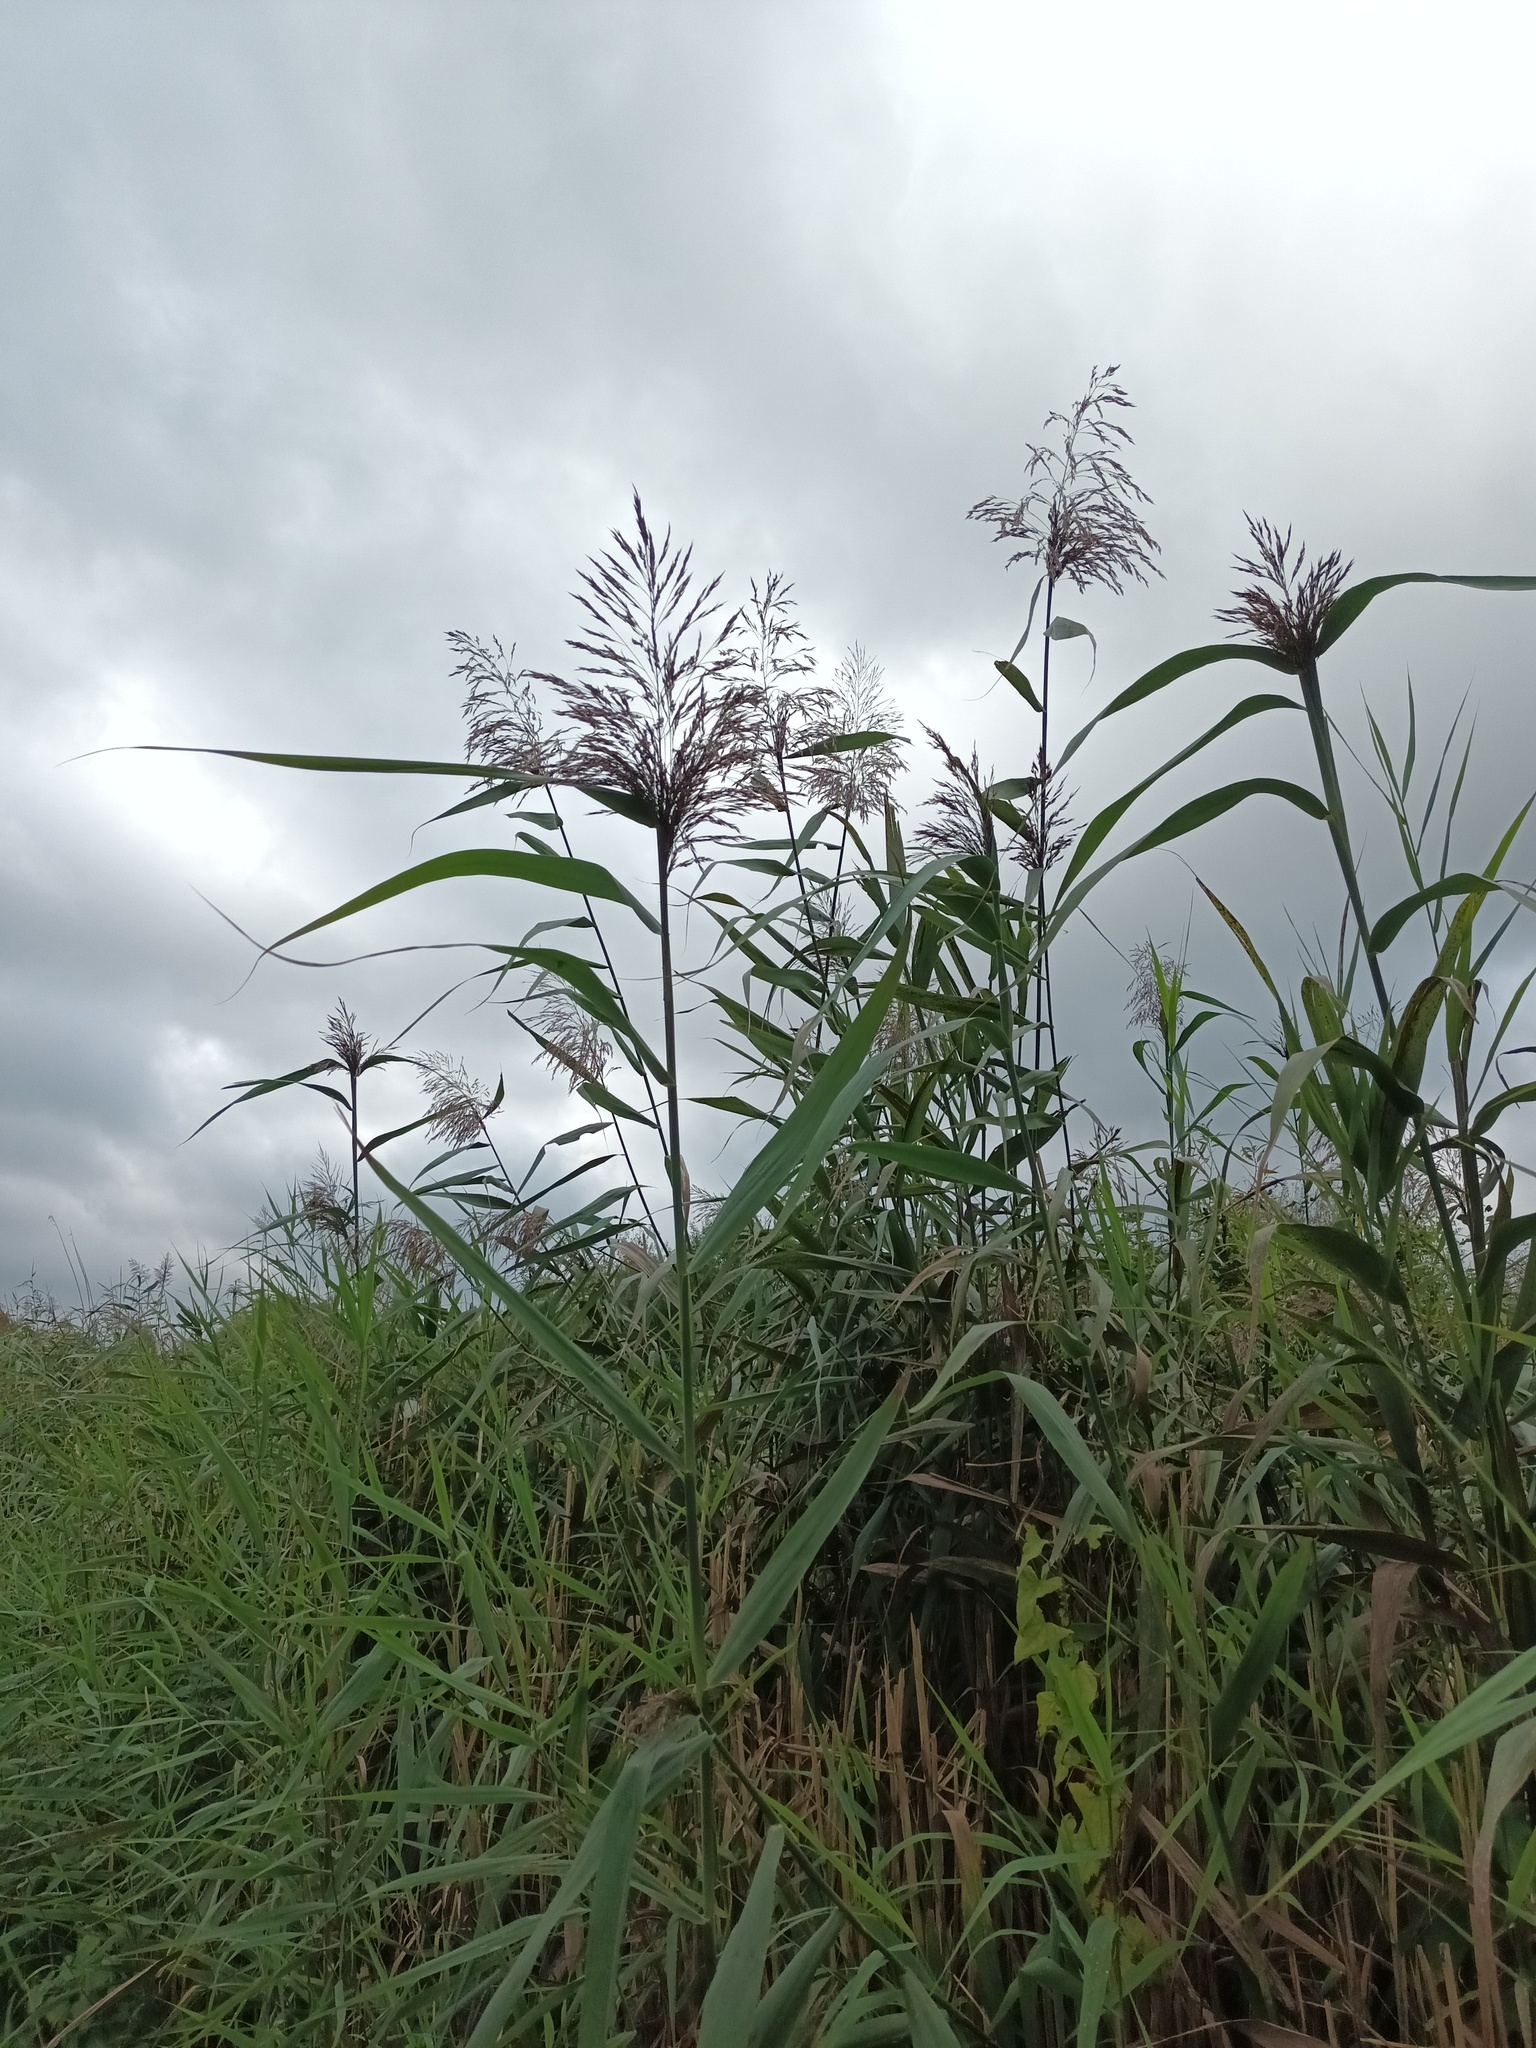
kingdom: Plantae
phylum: Tracheophyta
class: Liliopsida
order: Poales
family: Poaceae
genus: Phragmites
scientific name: Phragmites australis
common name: Common reed
